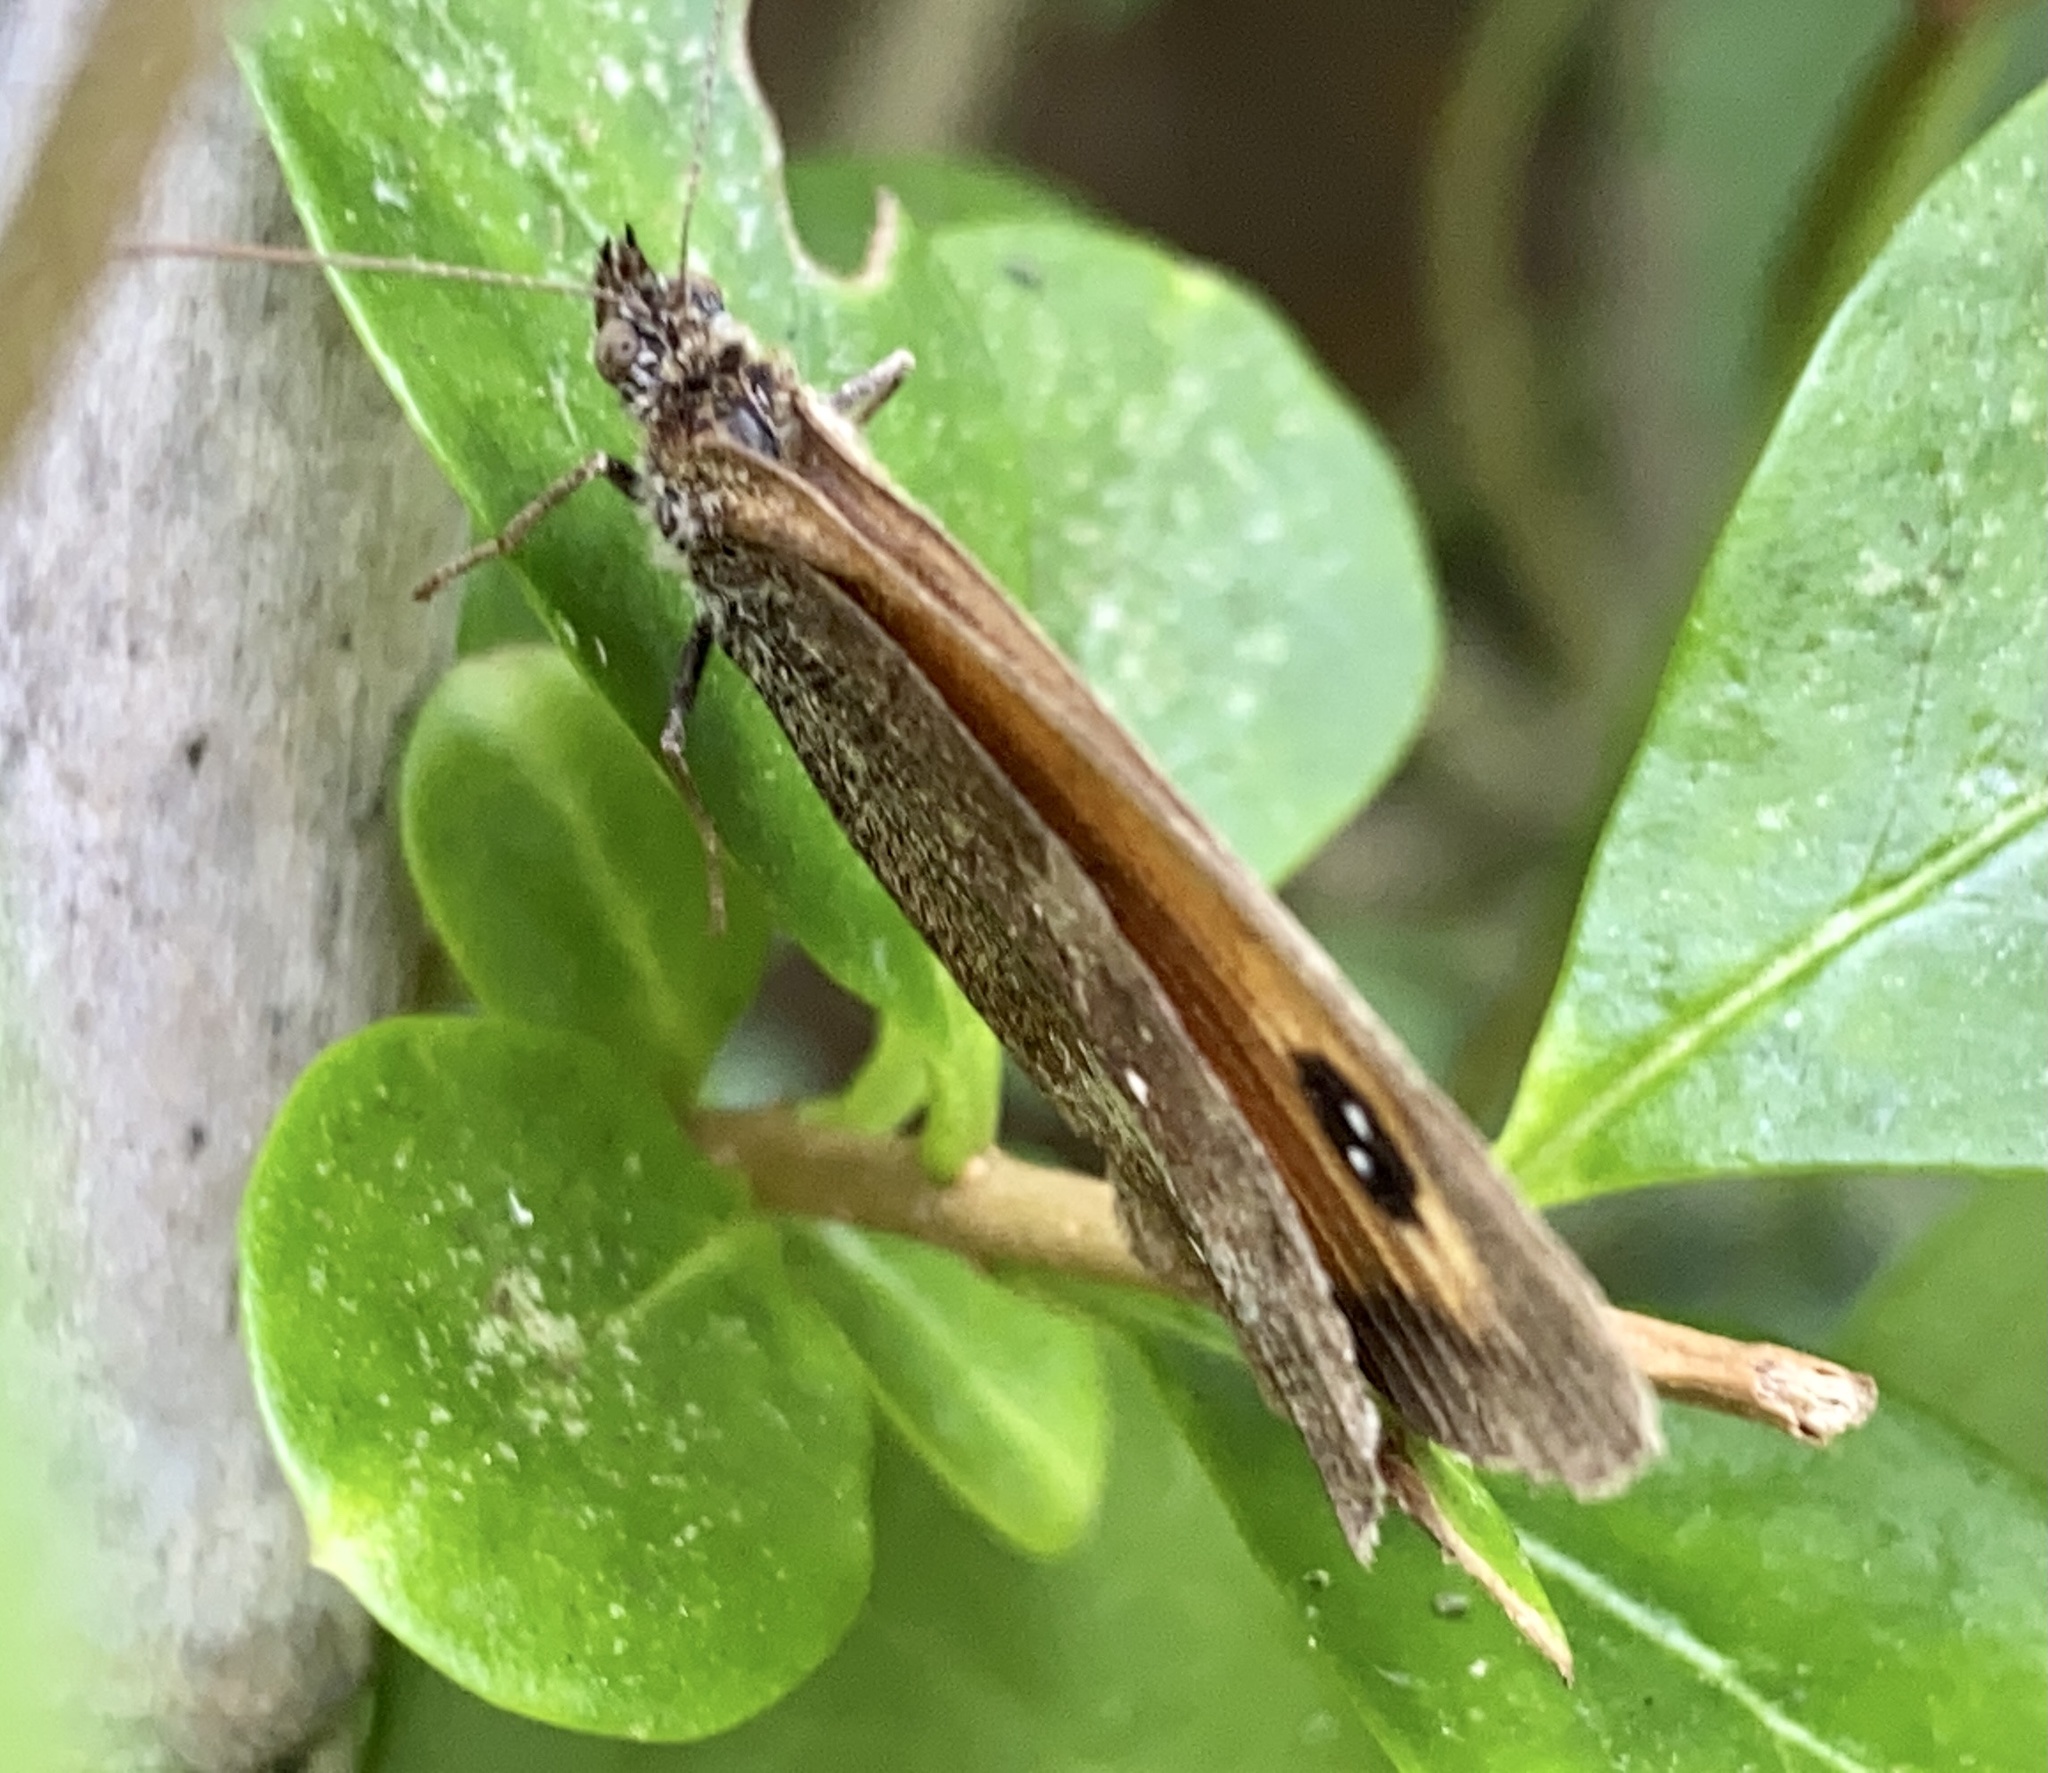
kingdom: Animalia
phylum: Arthropoda
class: Insecta
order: Lepidoptera
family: Nymphalidae
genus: Pyronia
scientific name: Pyronia tithonus
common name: Gatekeeper
